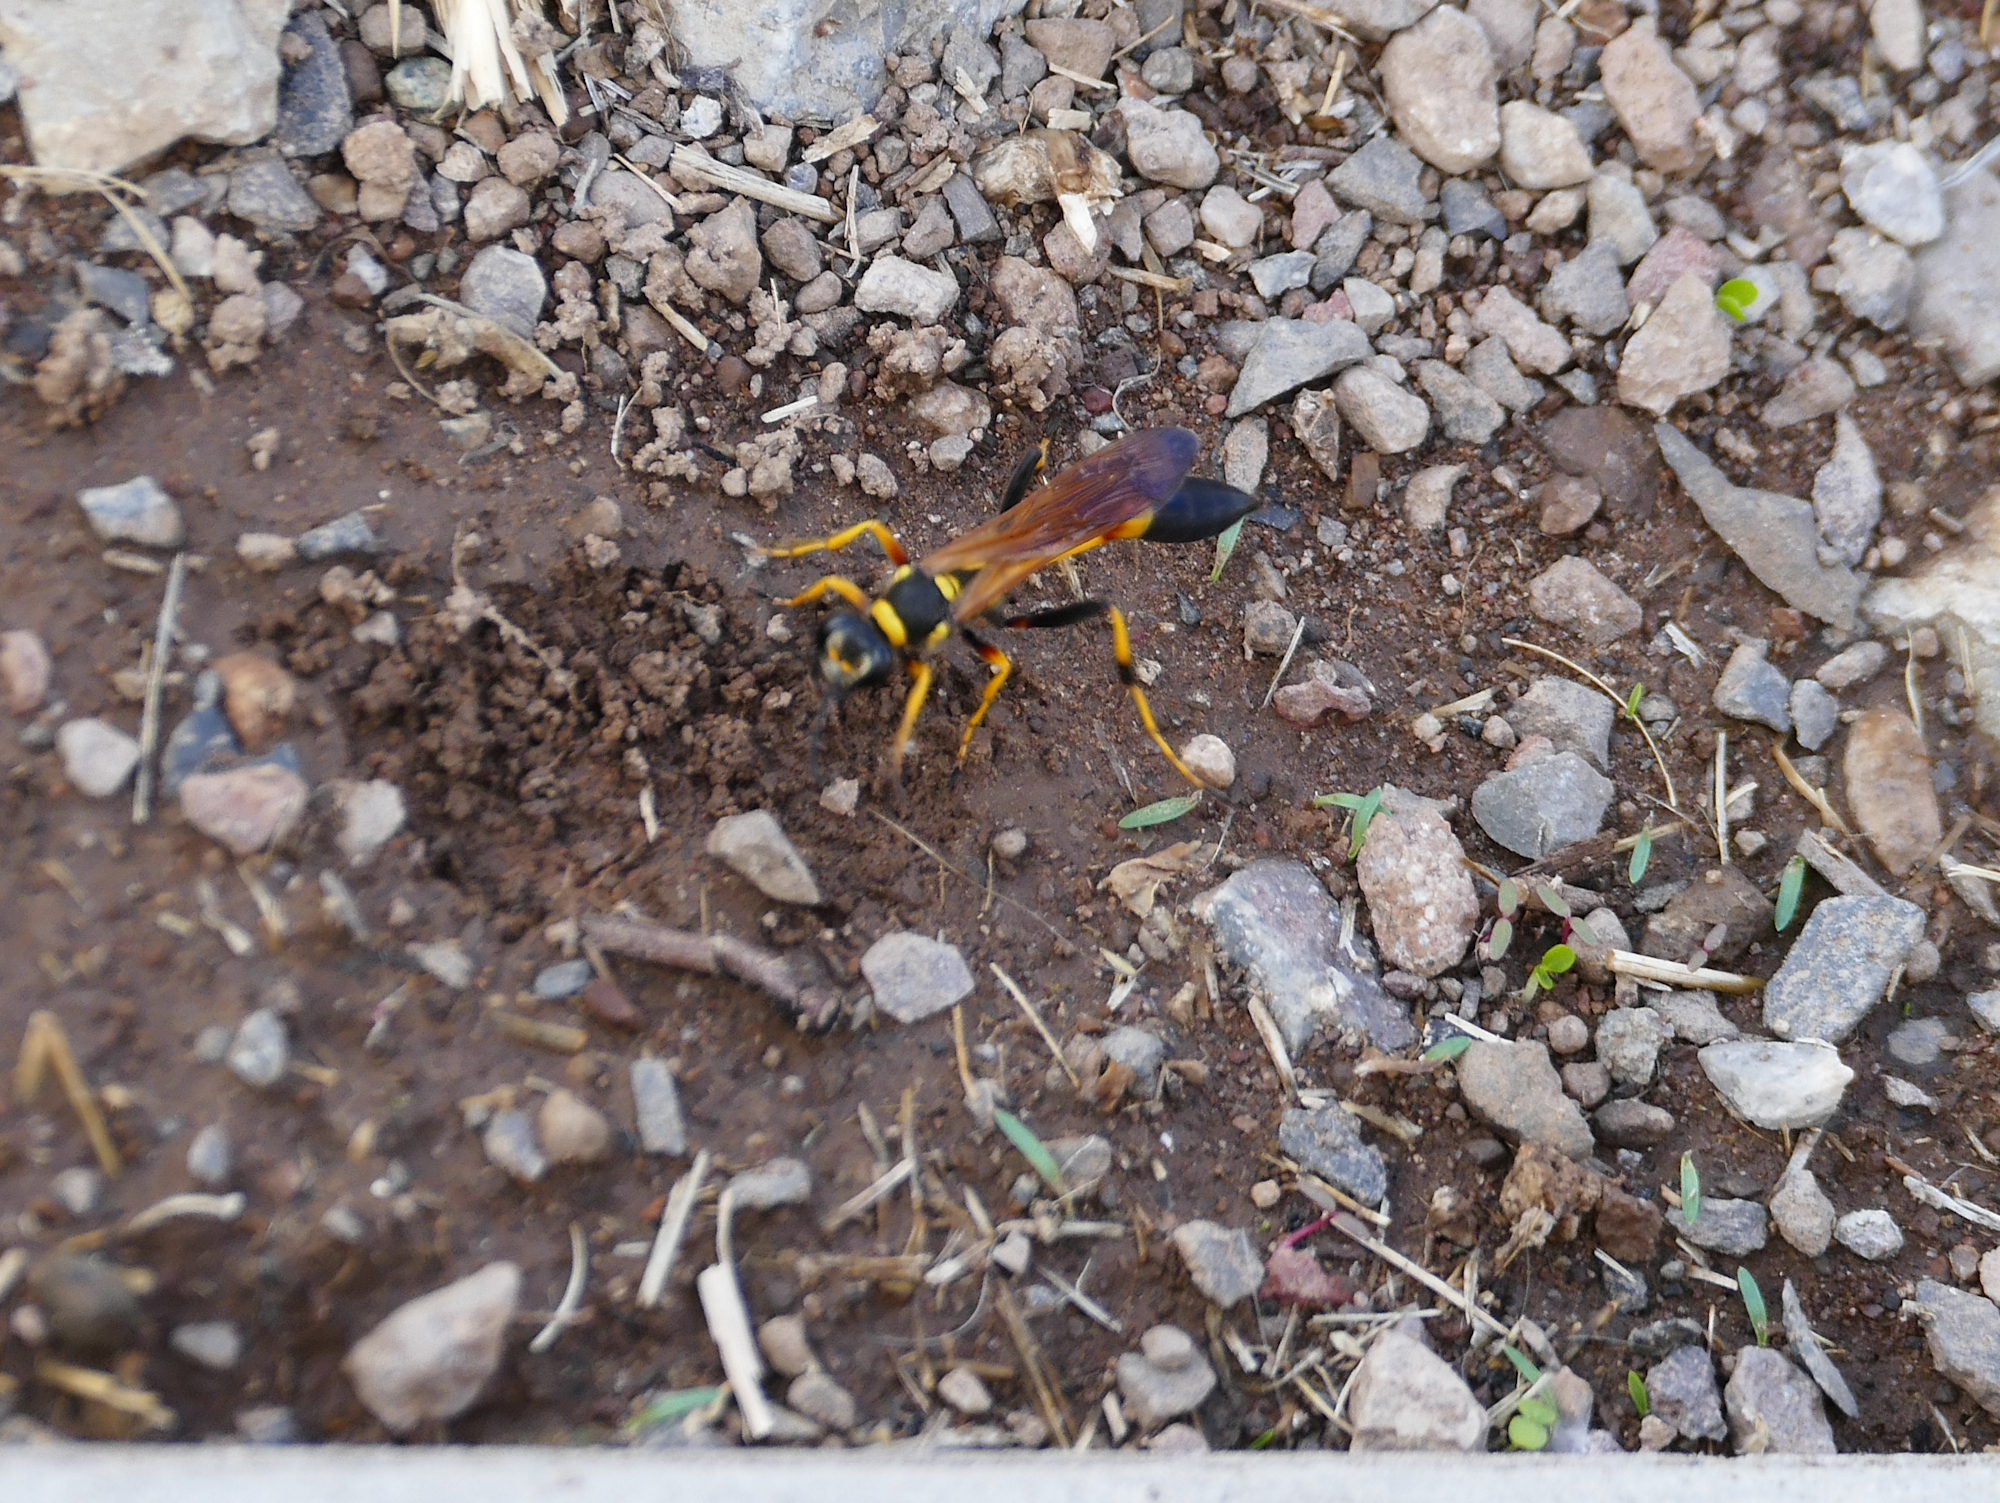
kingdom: Animalia
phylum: Arthropoda
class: Insecta
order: Hymenoptera
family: Sphecidae
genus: Sceliphron
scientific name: Sceliphron caementarium
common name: Mud dauber
